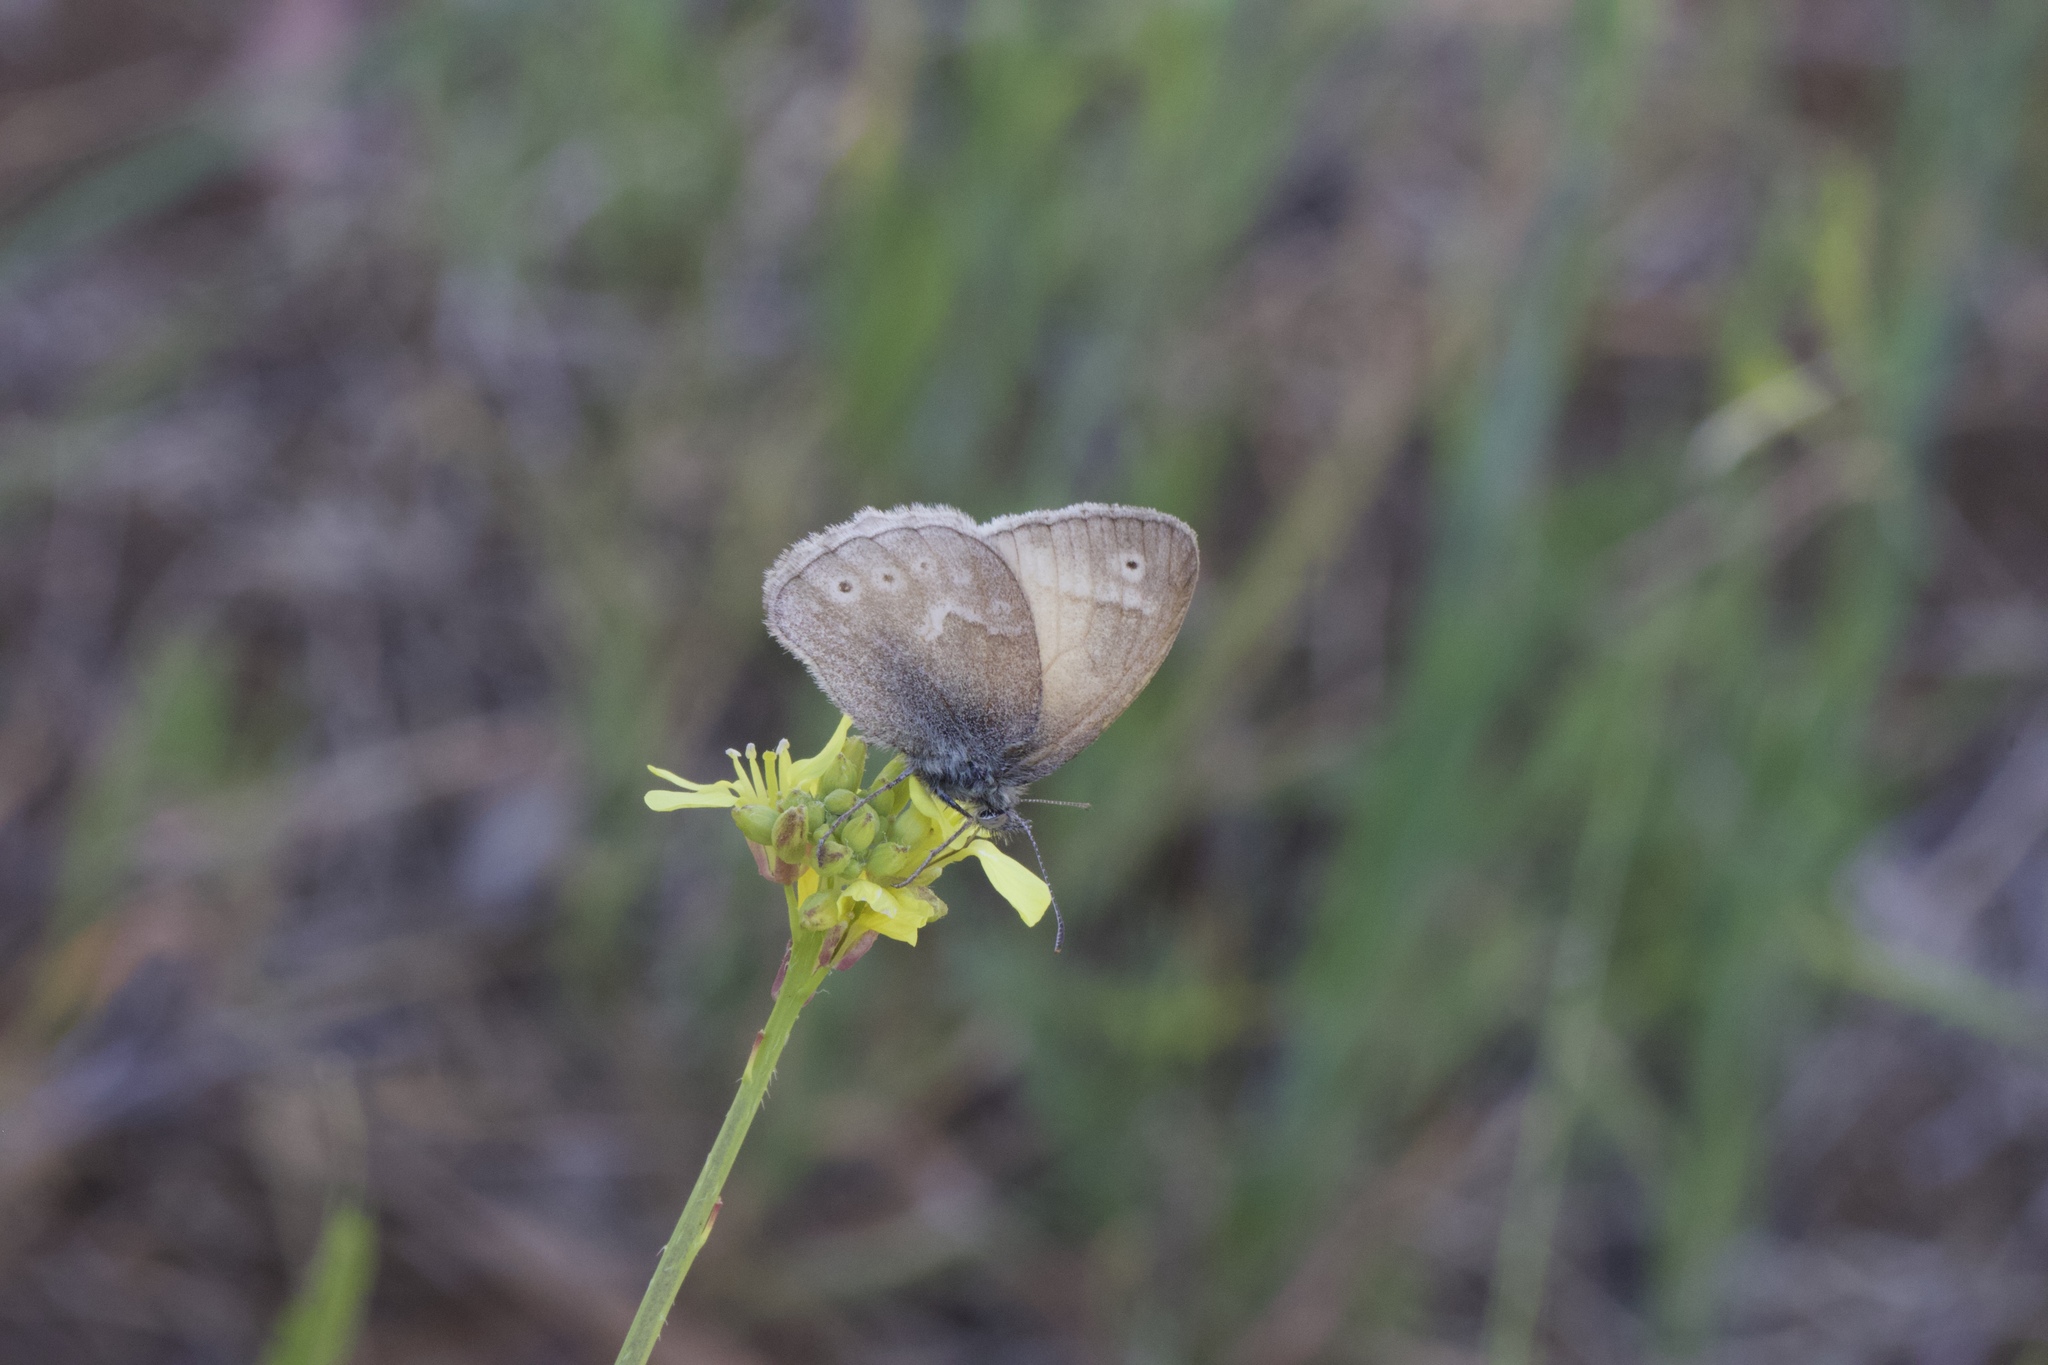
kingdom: Animalia
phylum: Arthropoda
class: Insecta
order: Lepidoptera
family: Nymphalidae
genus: Coenonympha
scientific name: Coenonympha california
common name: Common ringlet
